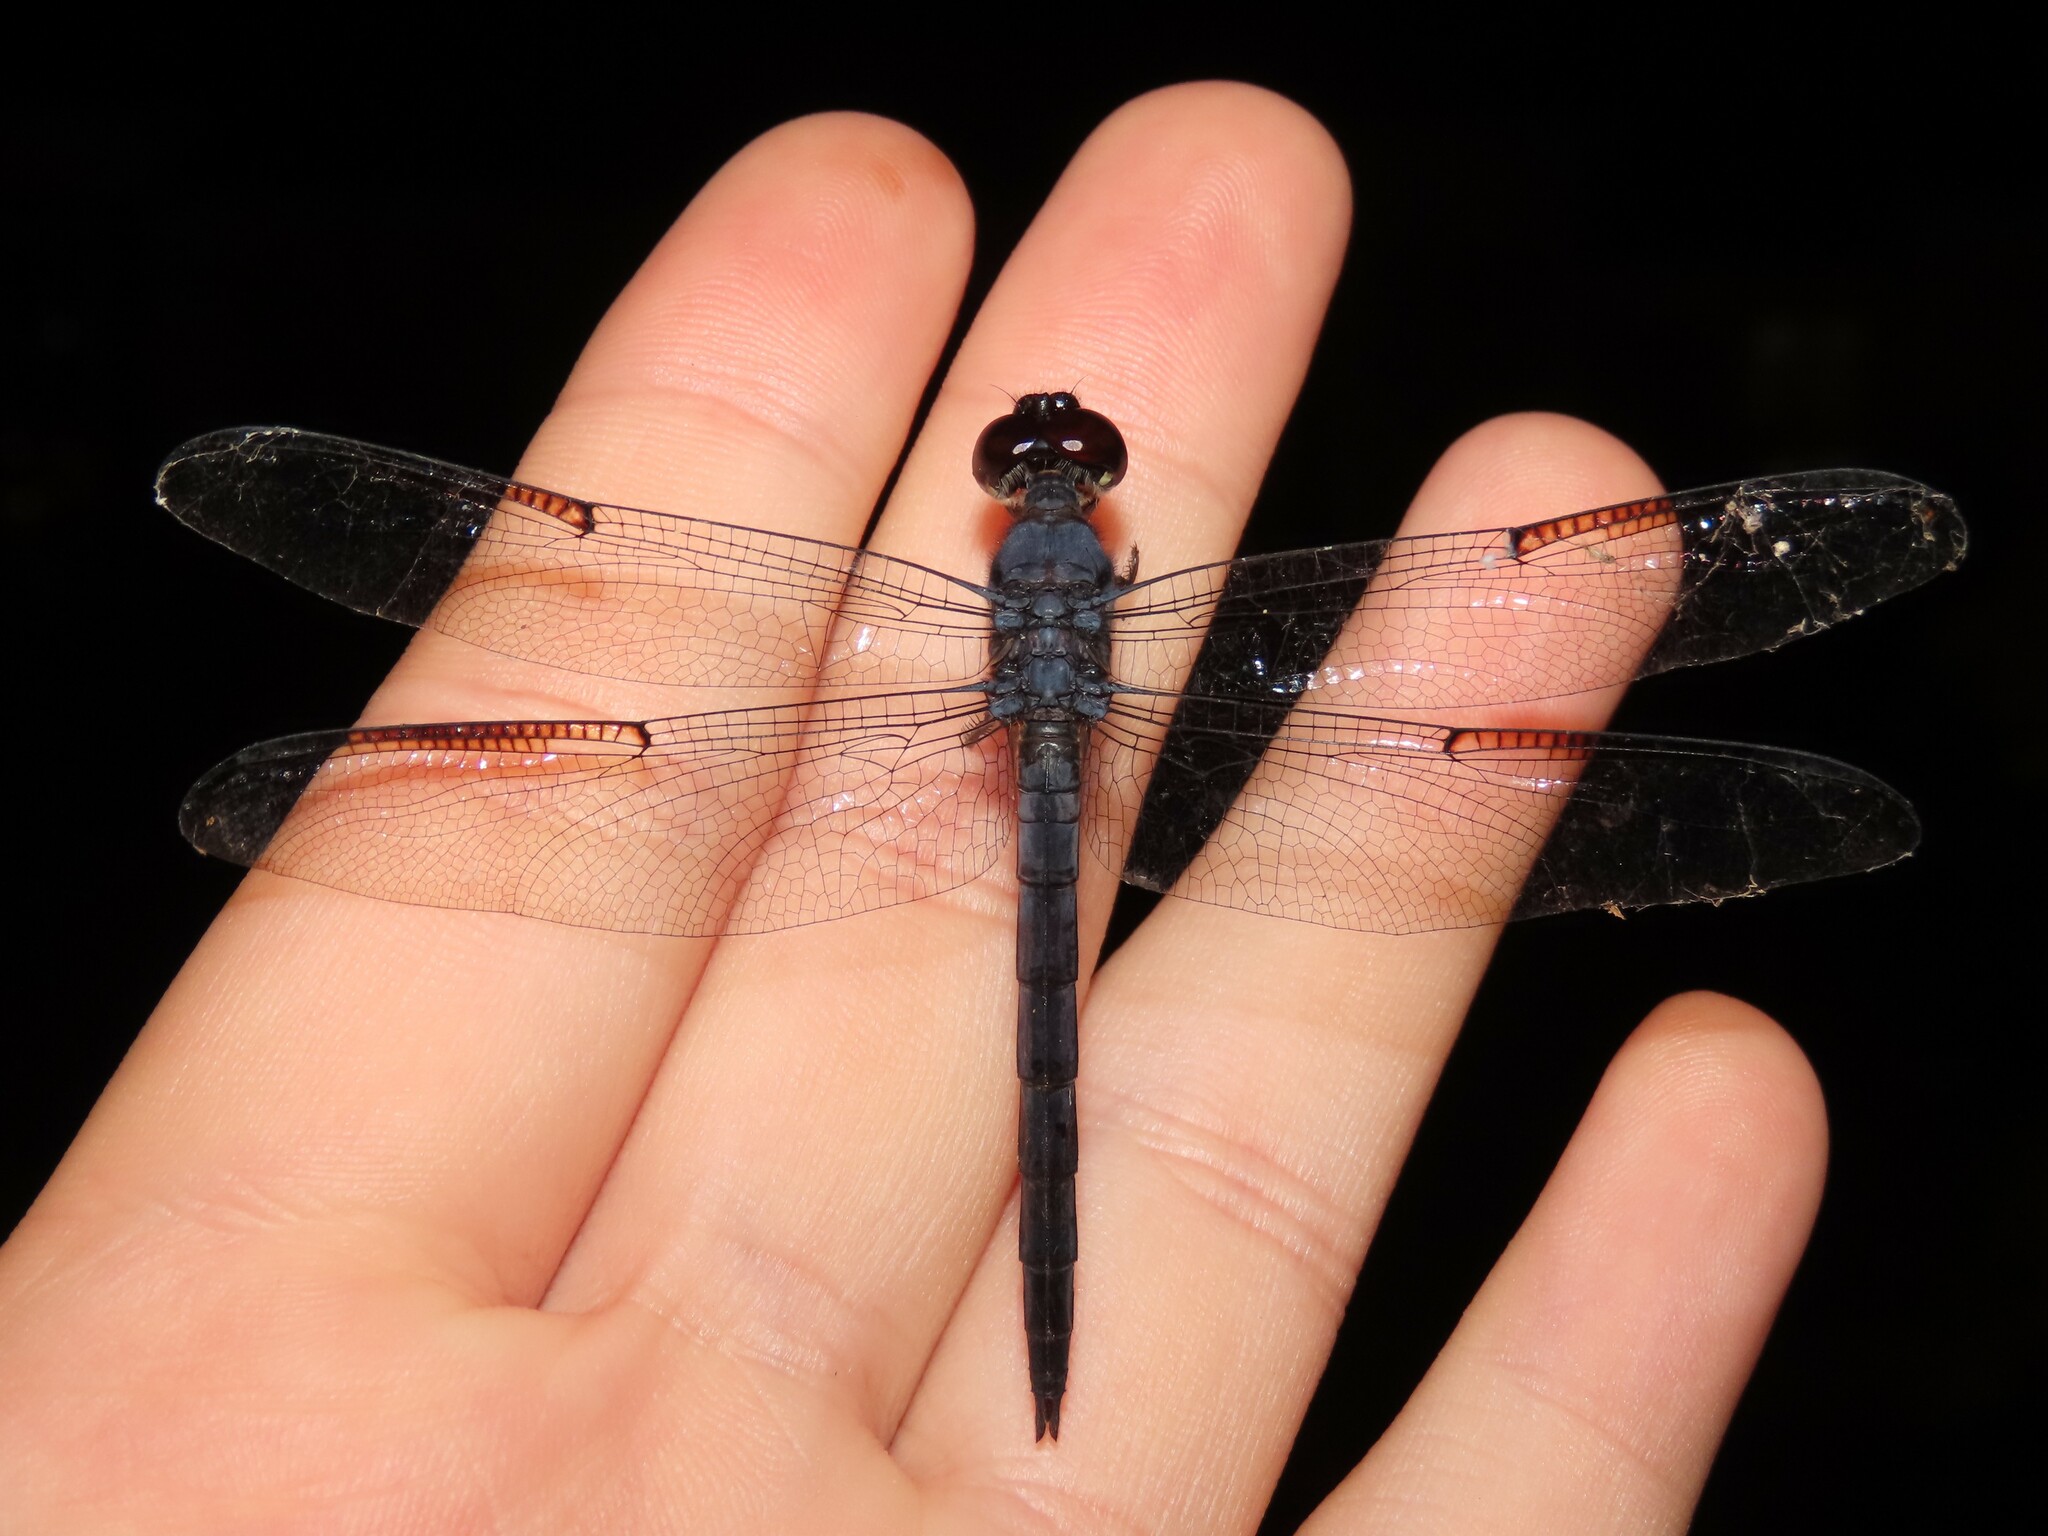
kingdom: Animalia
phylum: Arthropoda
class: Insecta
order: Odonata
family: Libellulidae
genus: Libellula
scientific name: Libellula incesta
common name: Slaty skimmer
